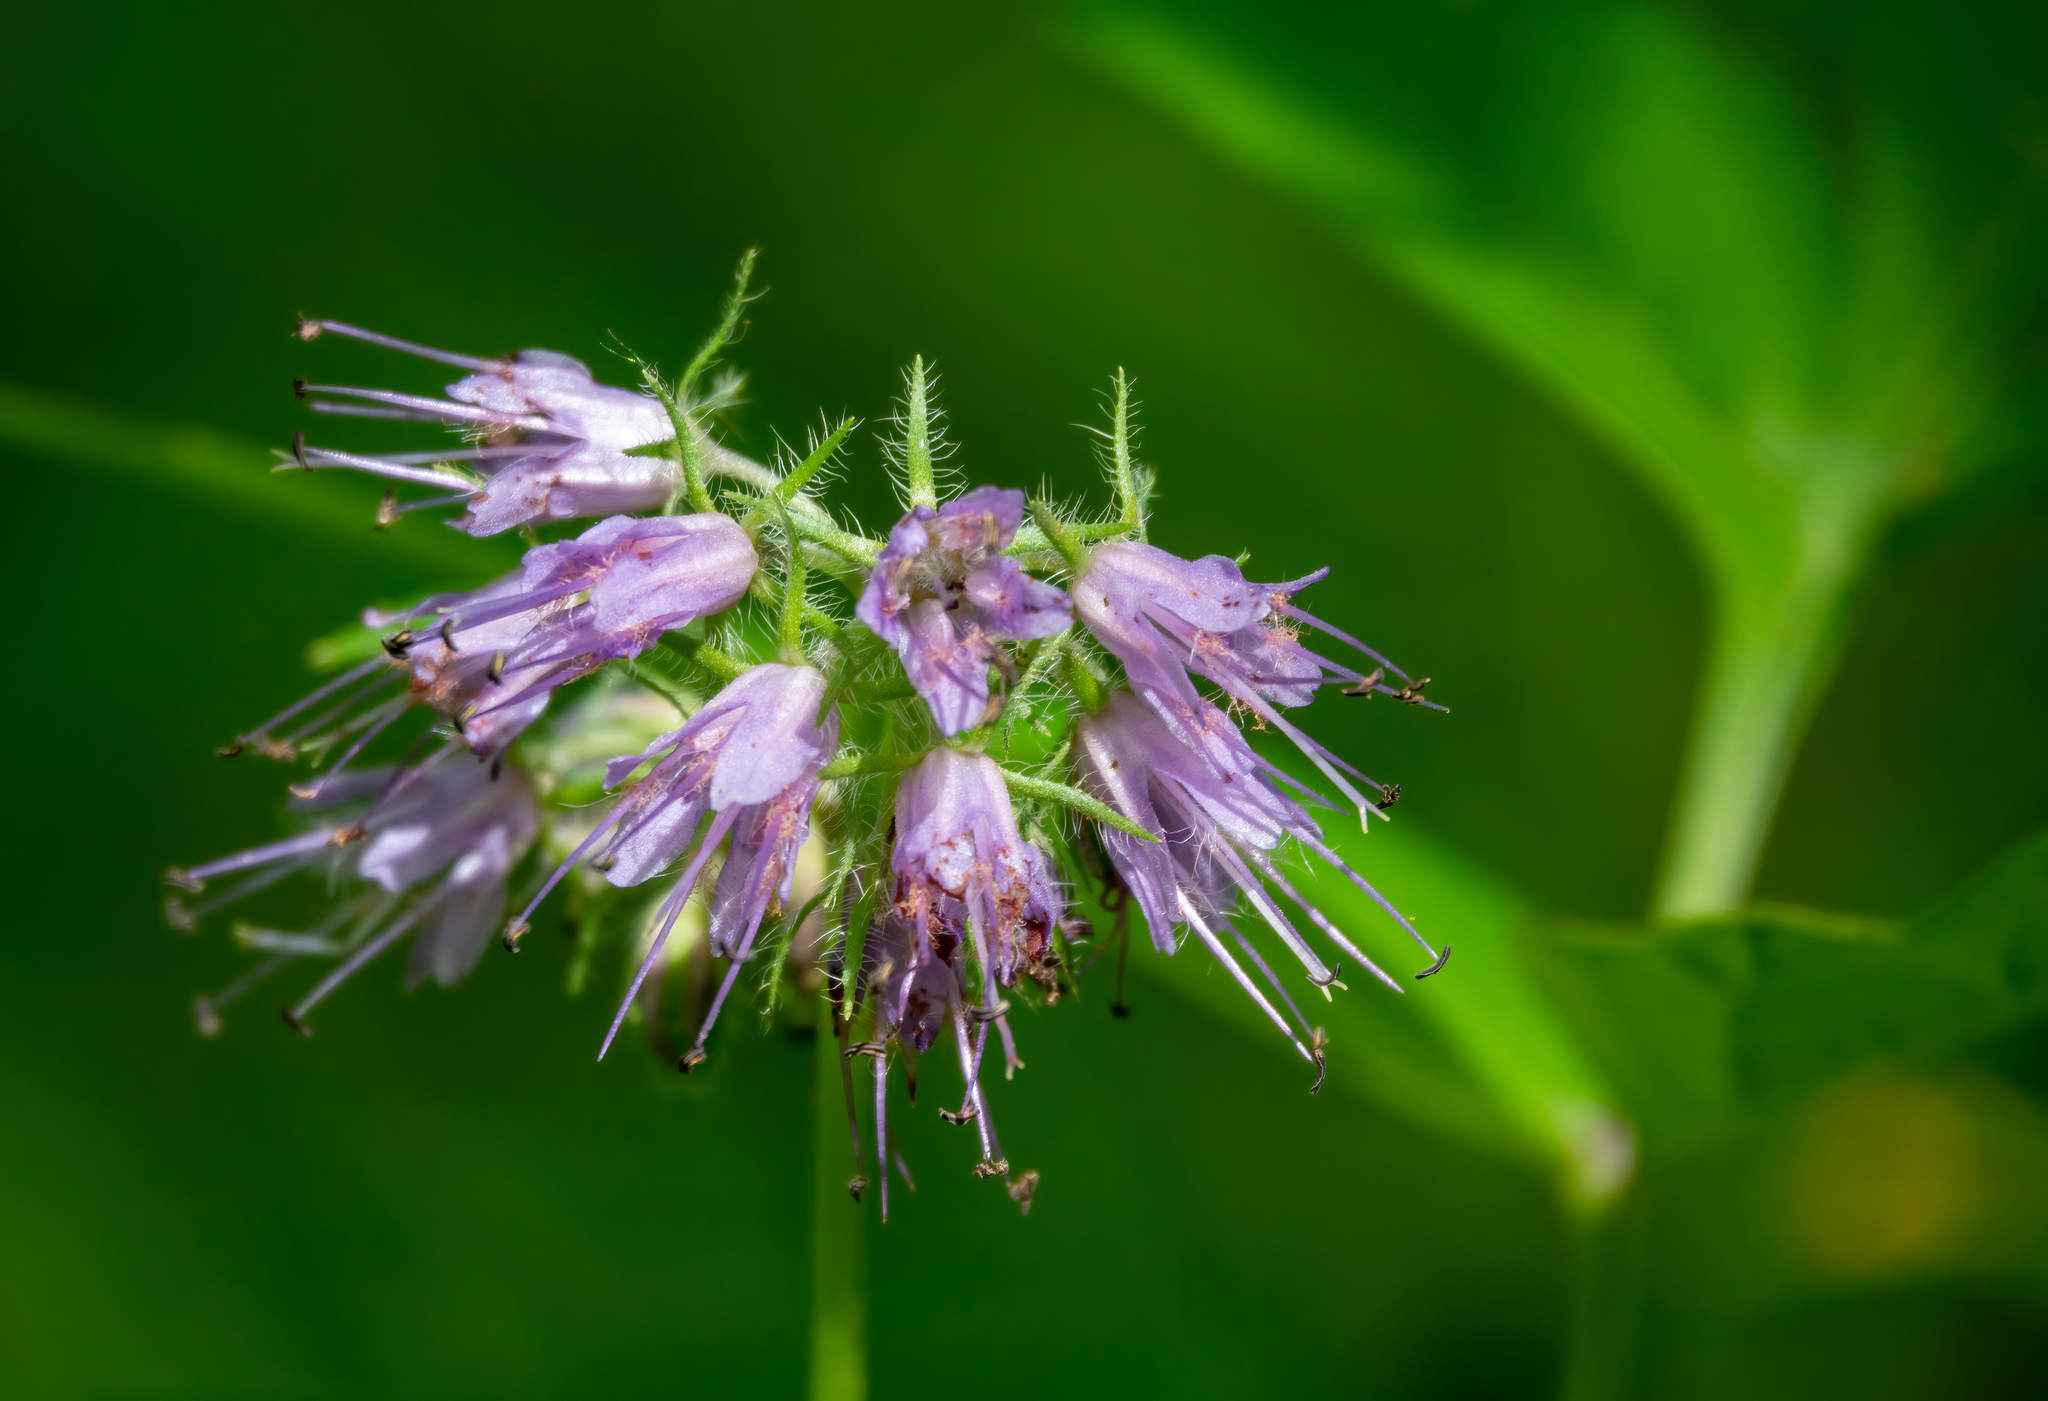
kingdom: Plantae
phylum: Tracheophyta
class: Magnoliopsida
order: Boraginales
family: Hydrophyllaceae
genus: Hydrophyllum
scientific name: Hydrophyllum virginianum
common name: Virginia waterleaf
